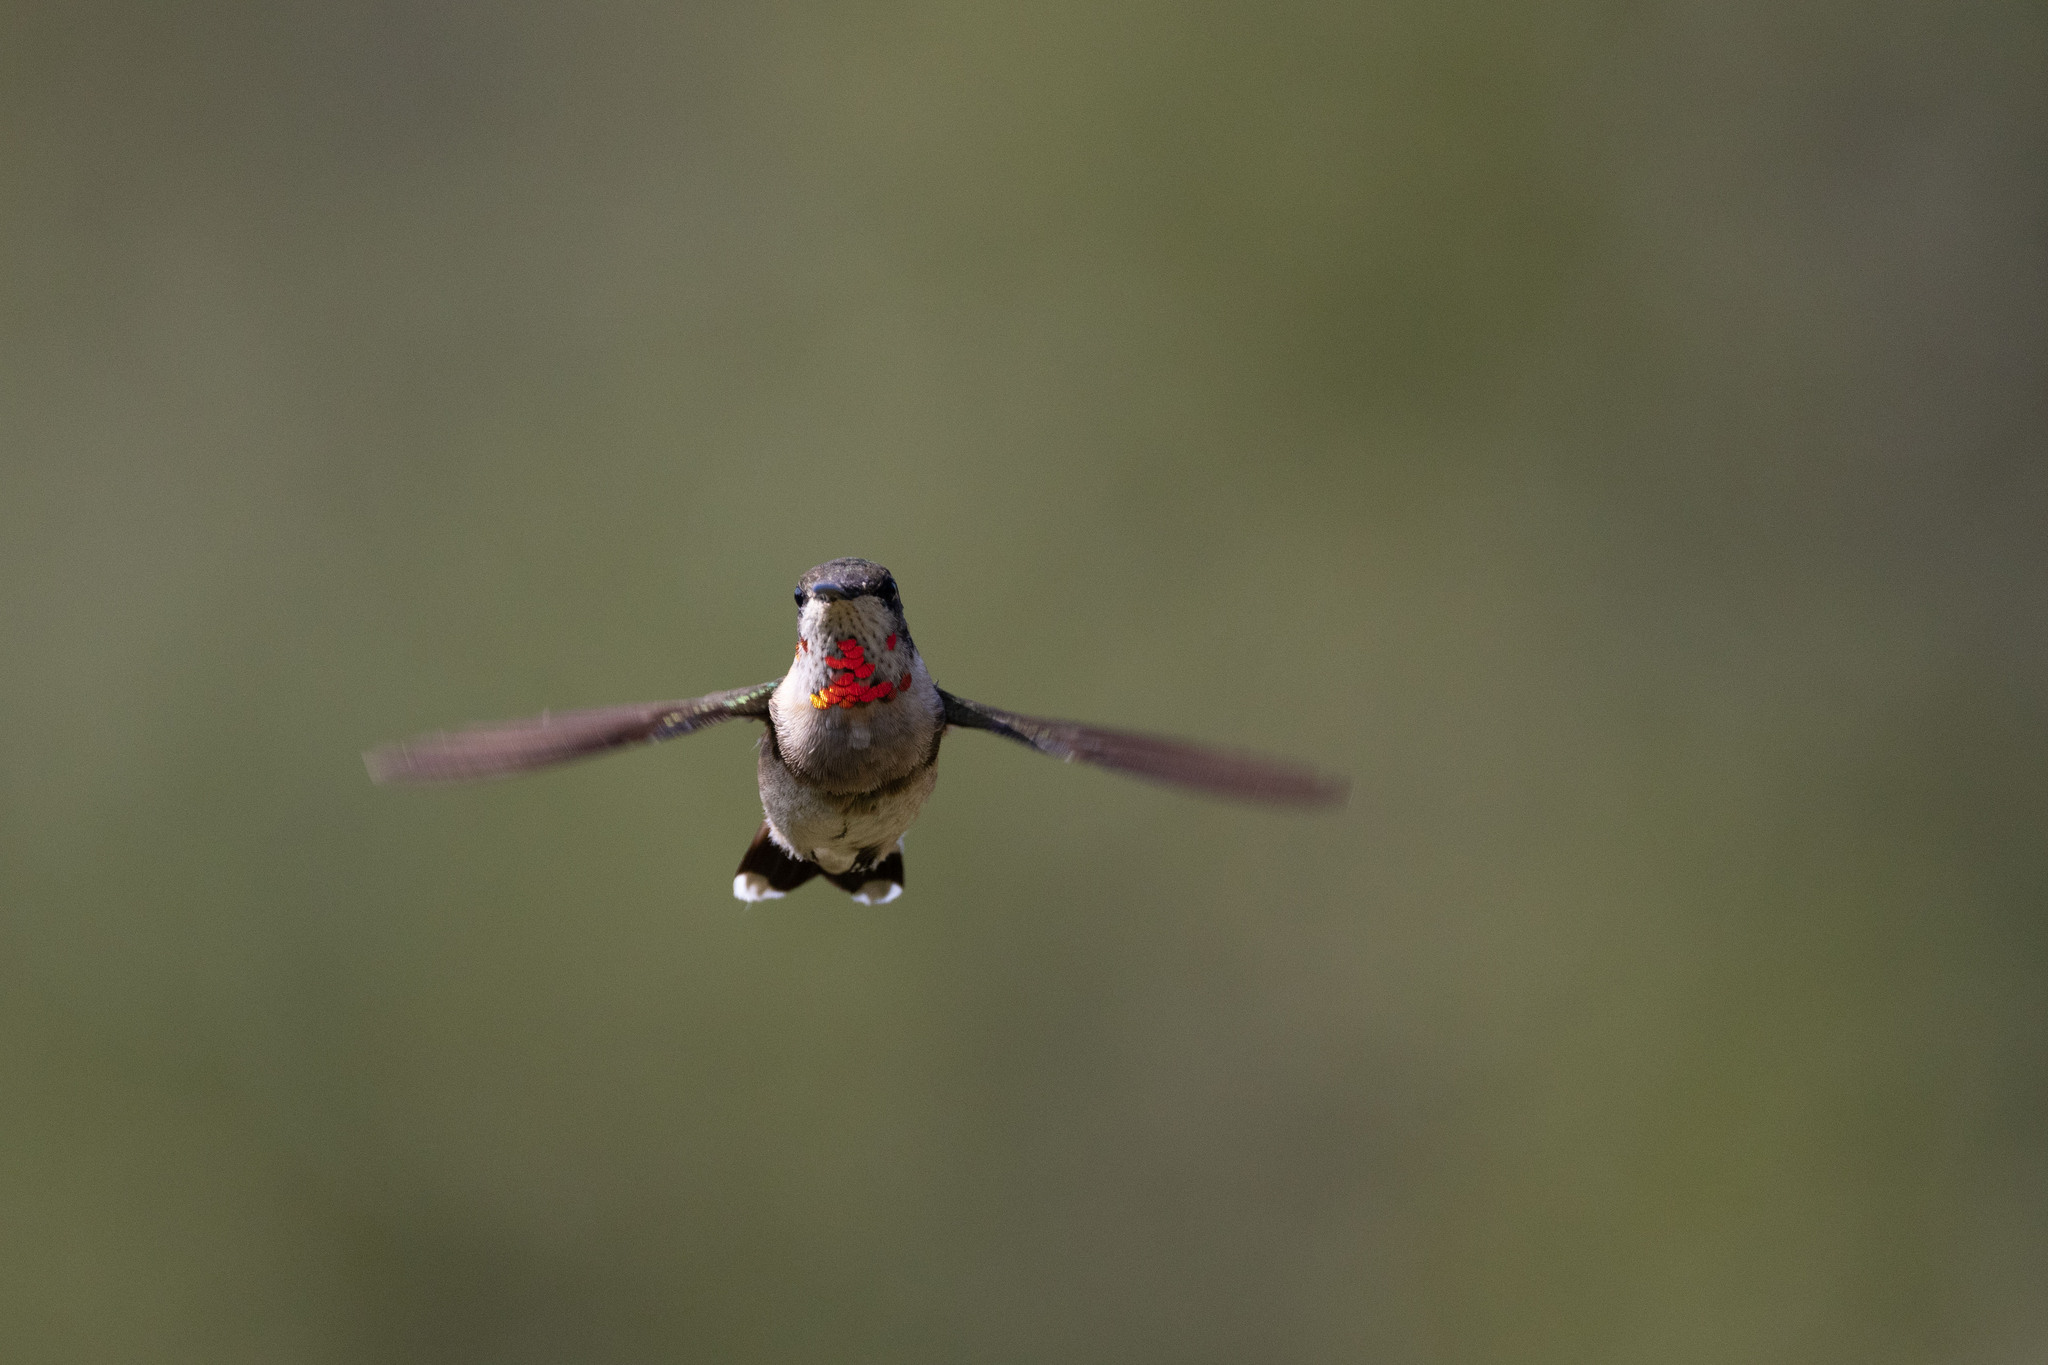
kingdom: Animalia
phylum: Chordata
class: Aves
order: Apodiformes
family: Trochilidae
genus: Archilochus
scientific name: Archilochus colubris
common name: Ruby-throated hummingbird
